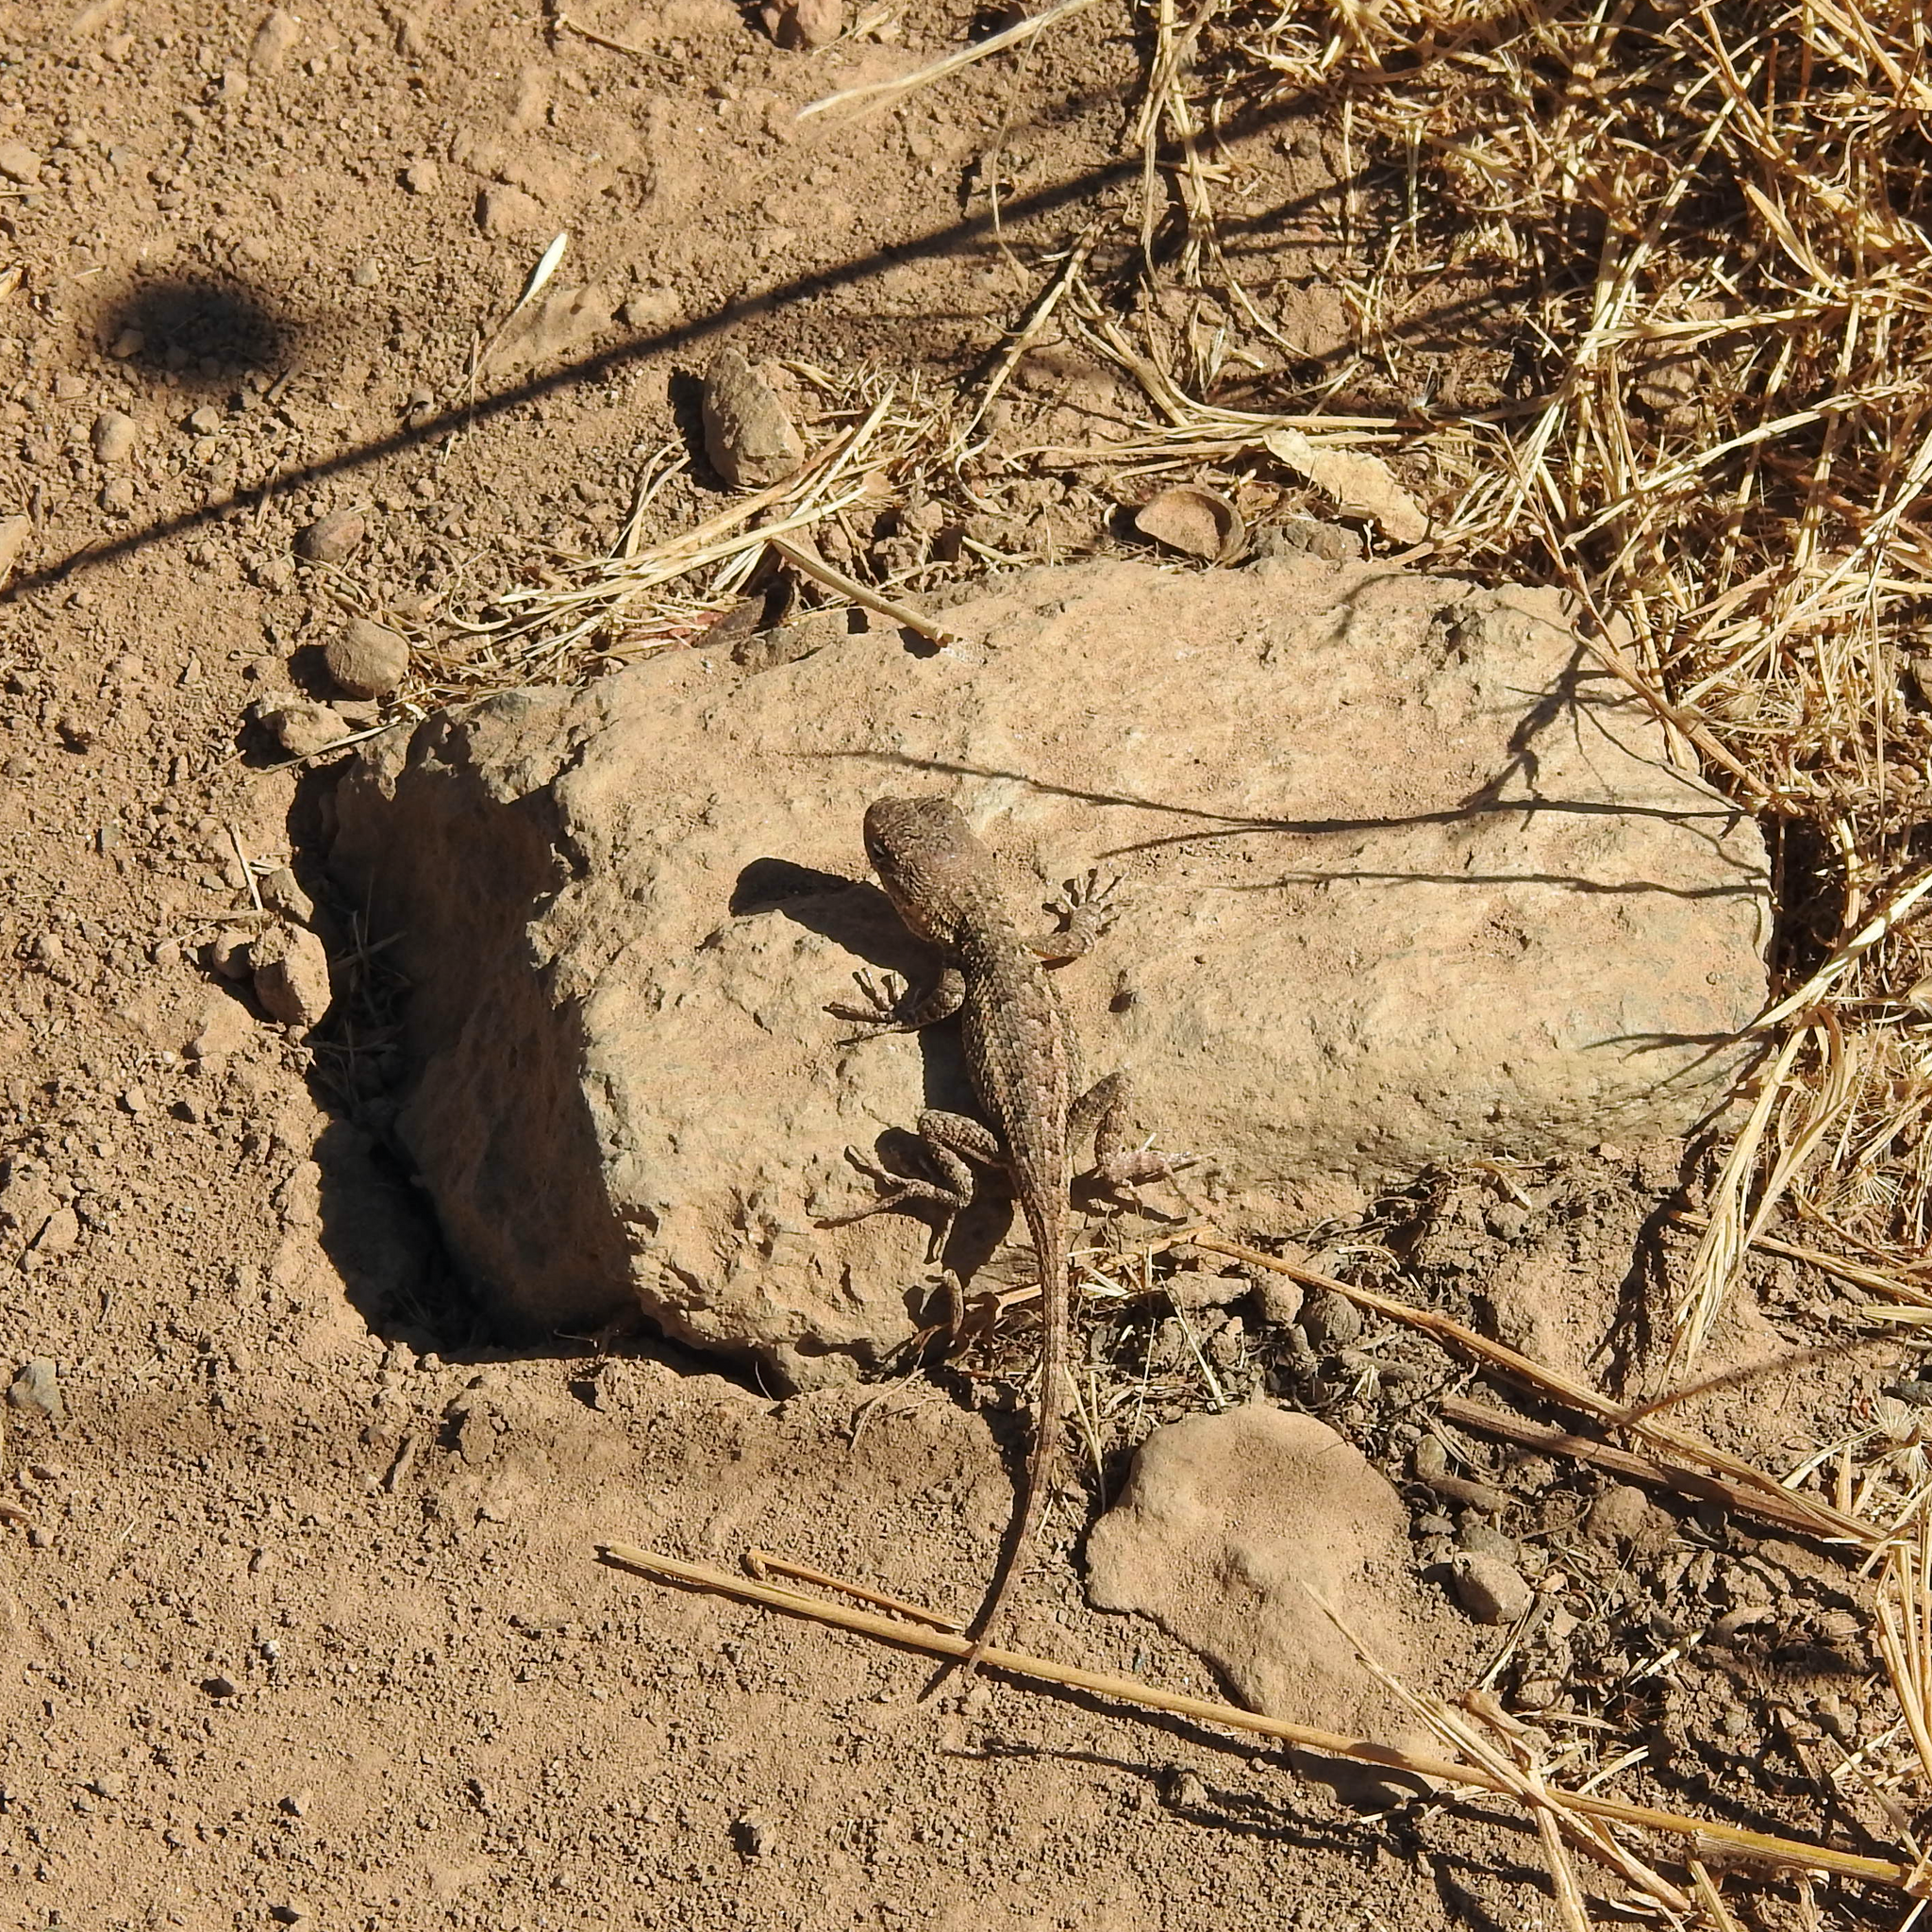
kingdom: Animalia
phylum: Chordata
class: Squamata
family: Phrynosomatidae
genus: Sceloporus
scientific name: Sceloporus occidentalis
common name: Western fence lizard
